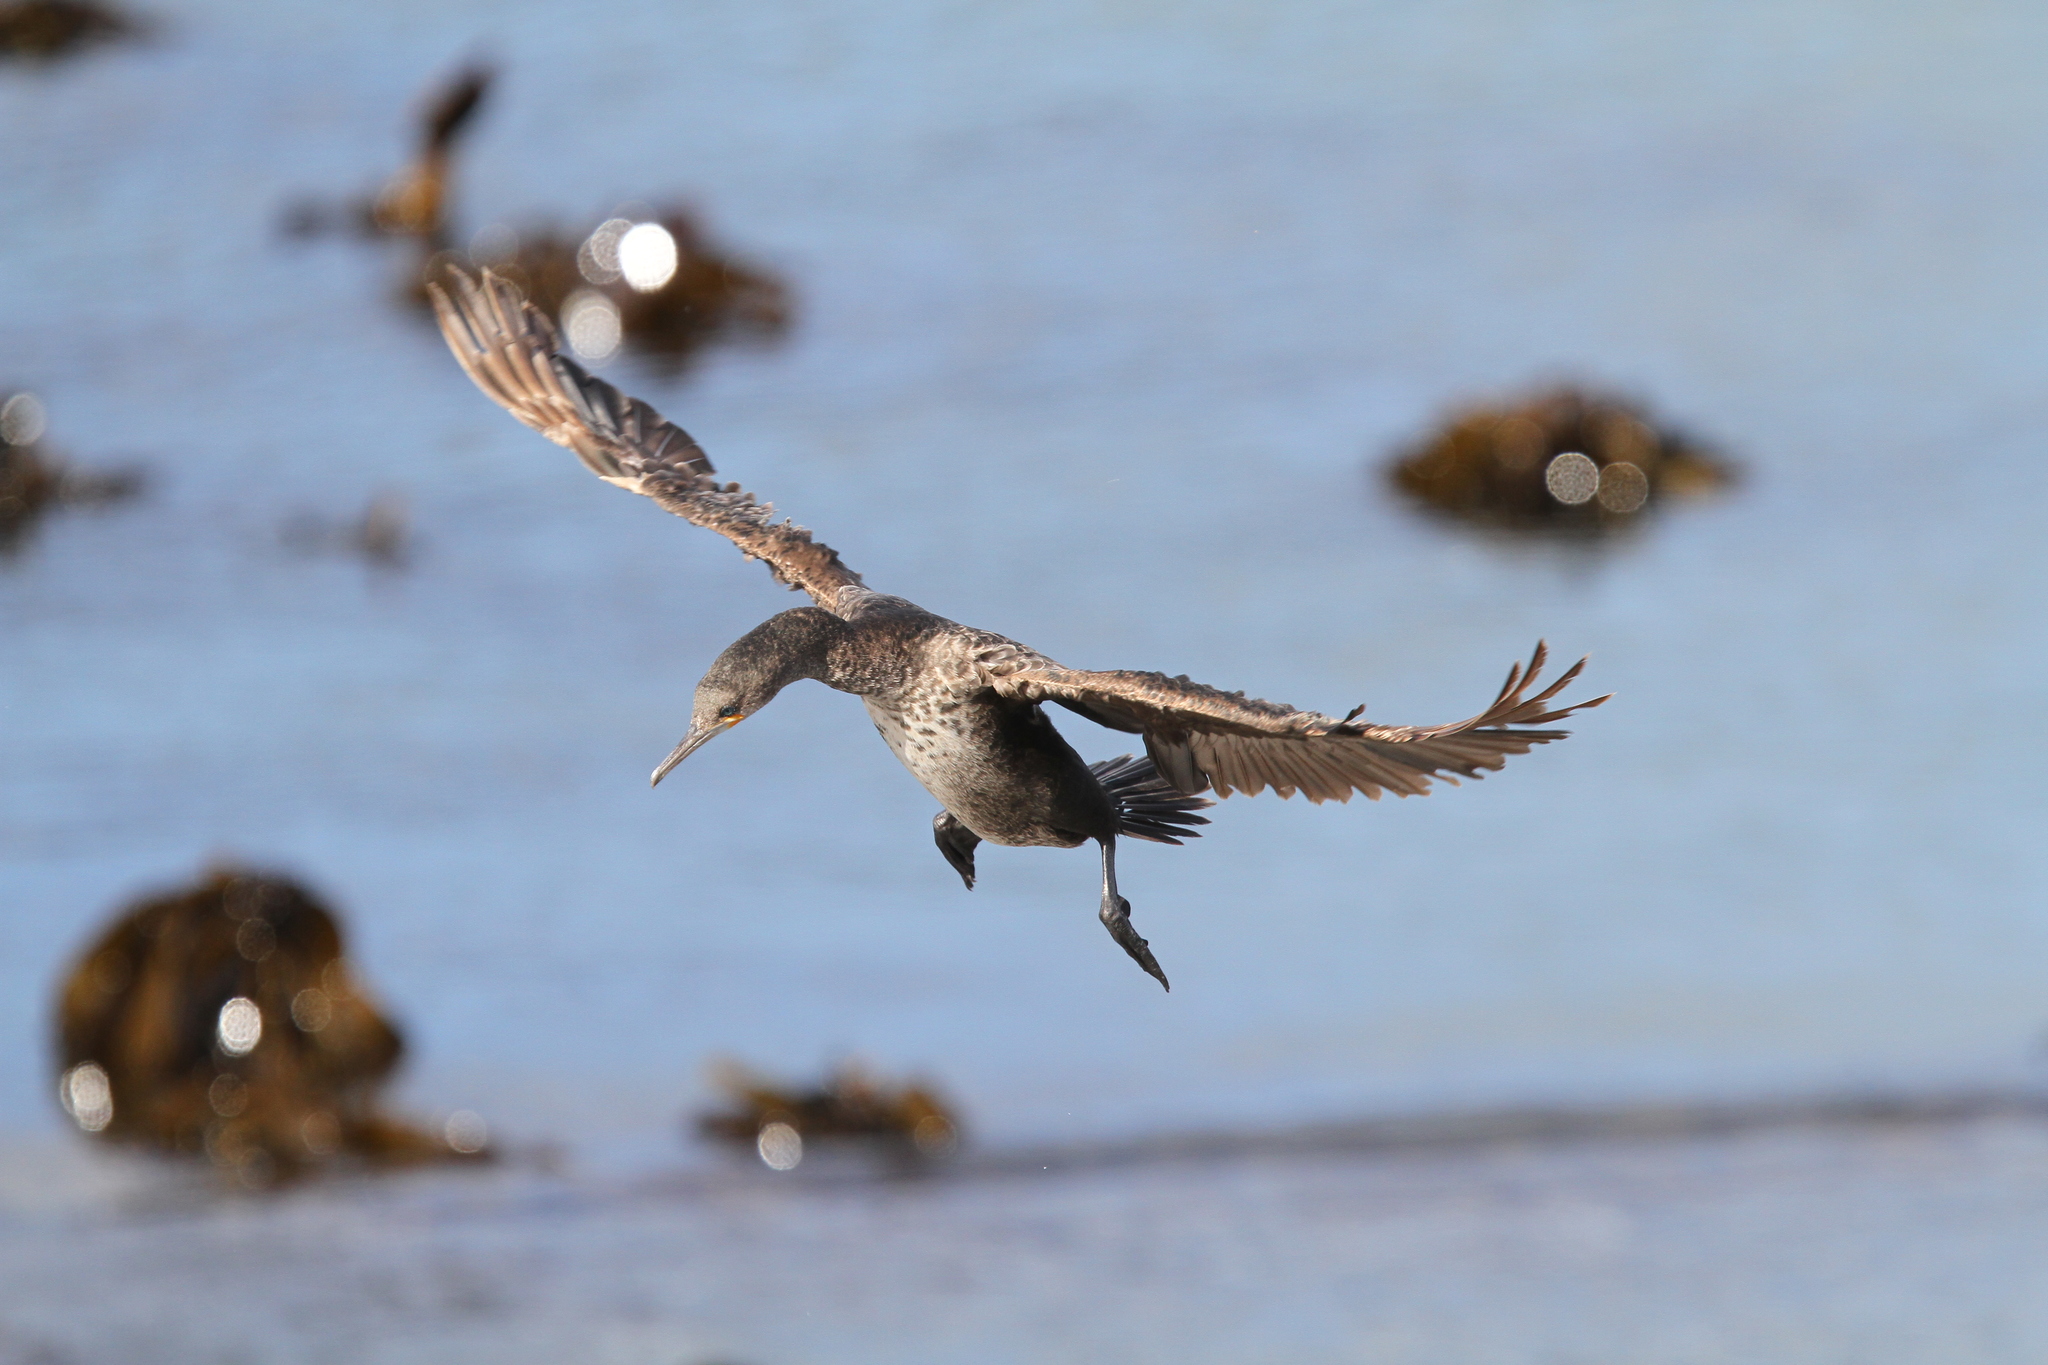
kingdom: Animalia
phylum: Chordata
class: Aves
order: Suliformes
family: Phalacrocoracidae
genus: Phalacrocorax
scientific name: Phalacrocorax capensis
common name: Cape cormorant
